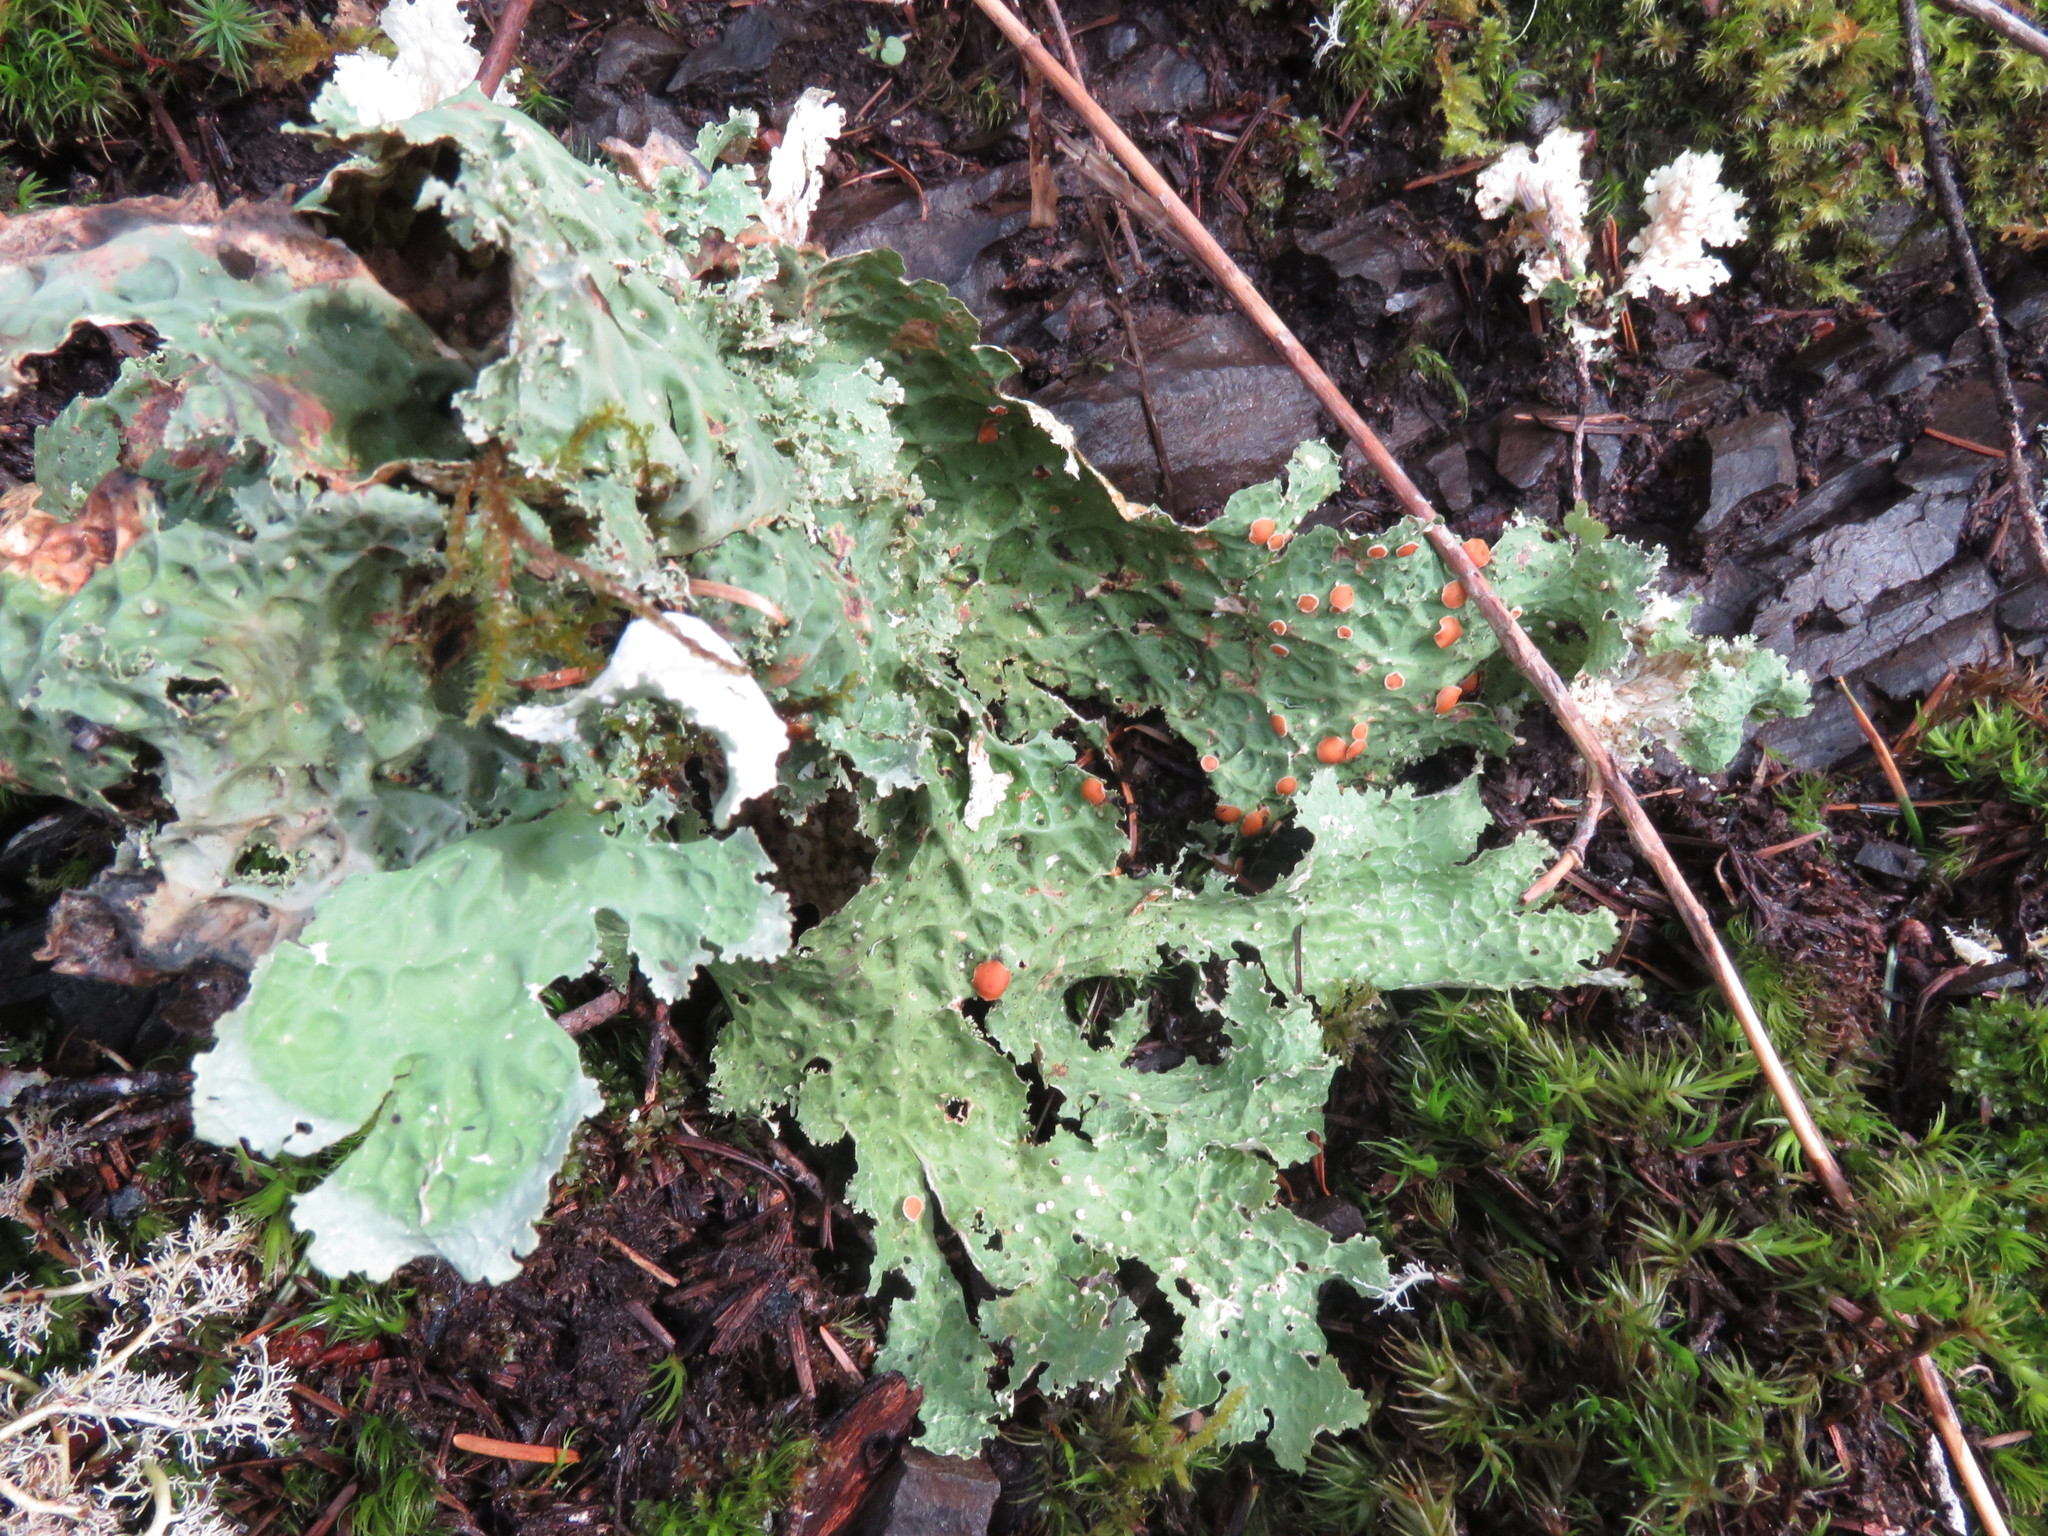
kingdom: Fungi
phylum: Ascomycota
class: Lecanoromycetes
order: Peltigerales
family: Lobariaceae
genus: Lobaria
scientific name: Lobaria oregana
